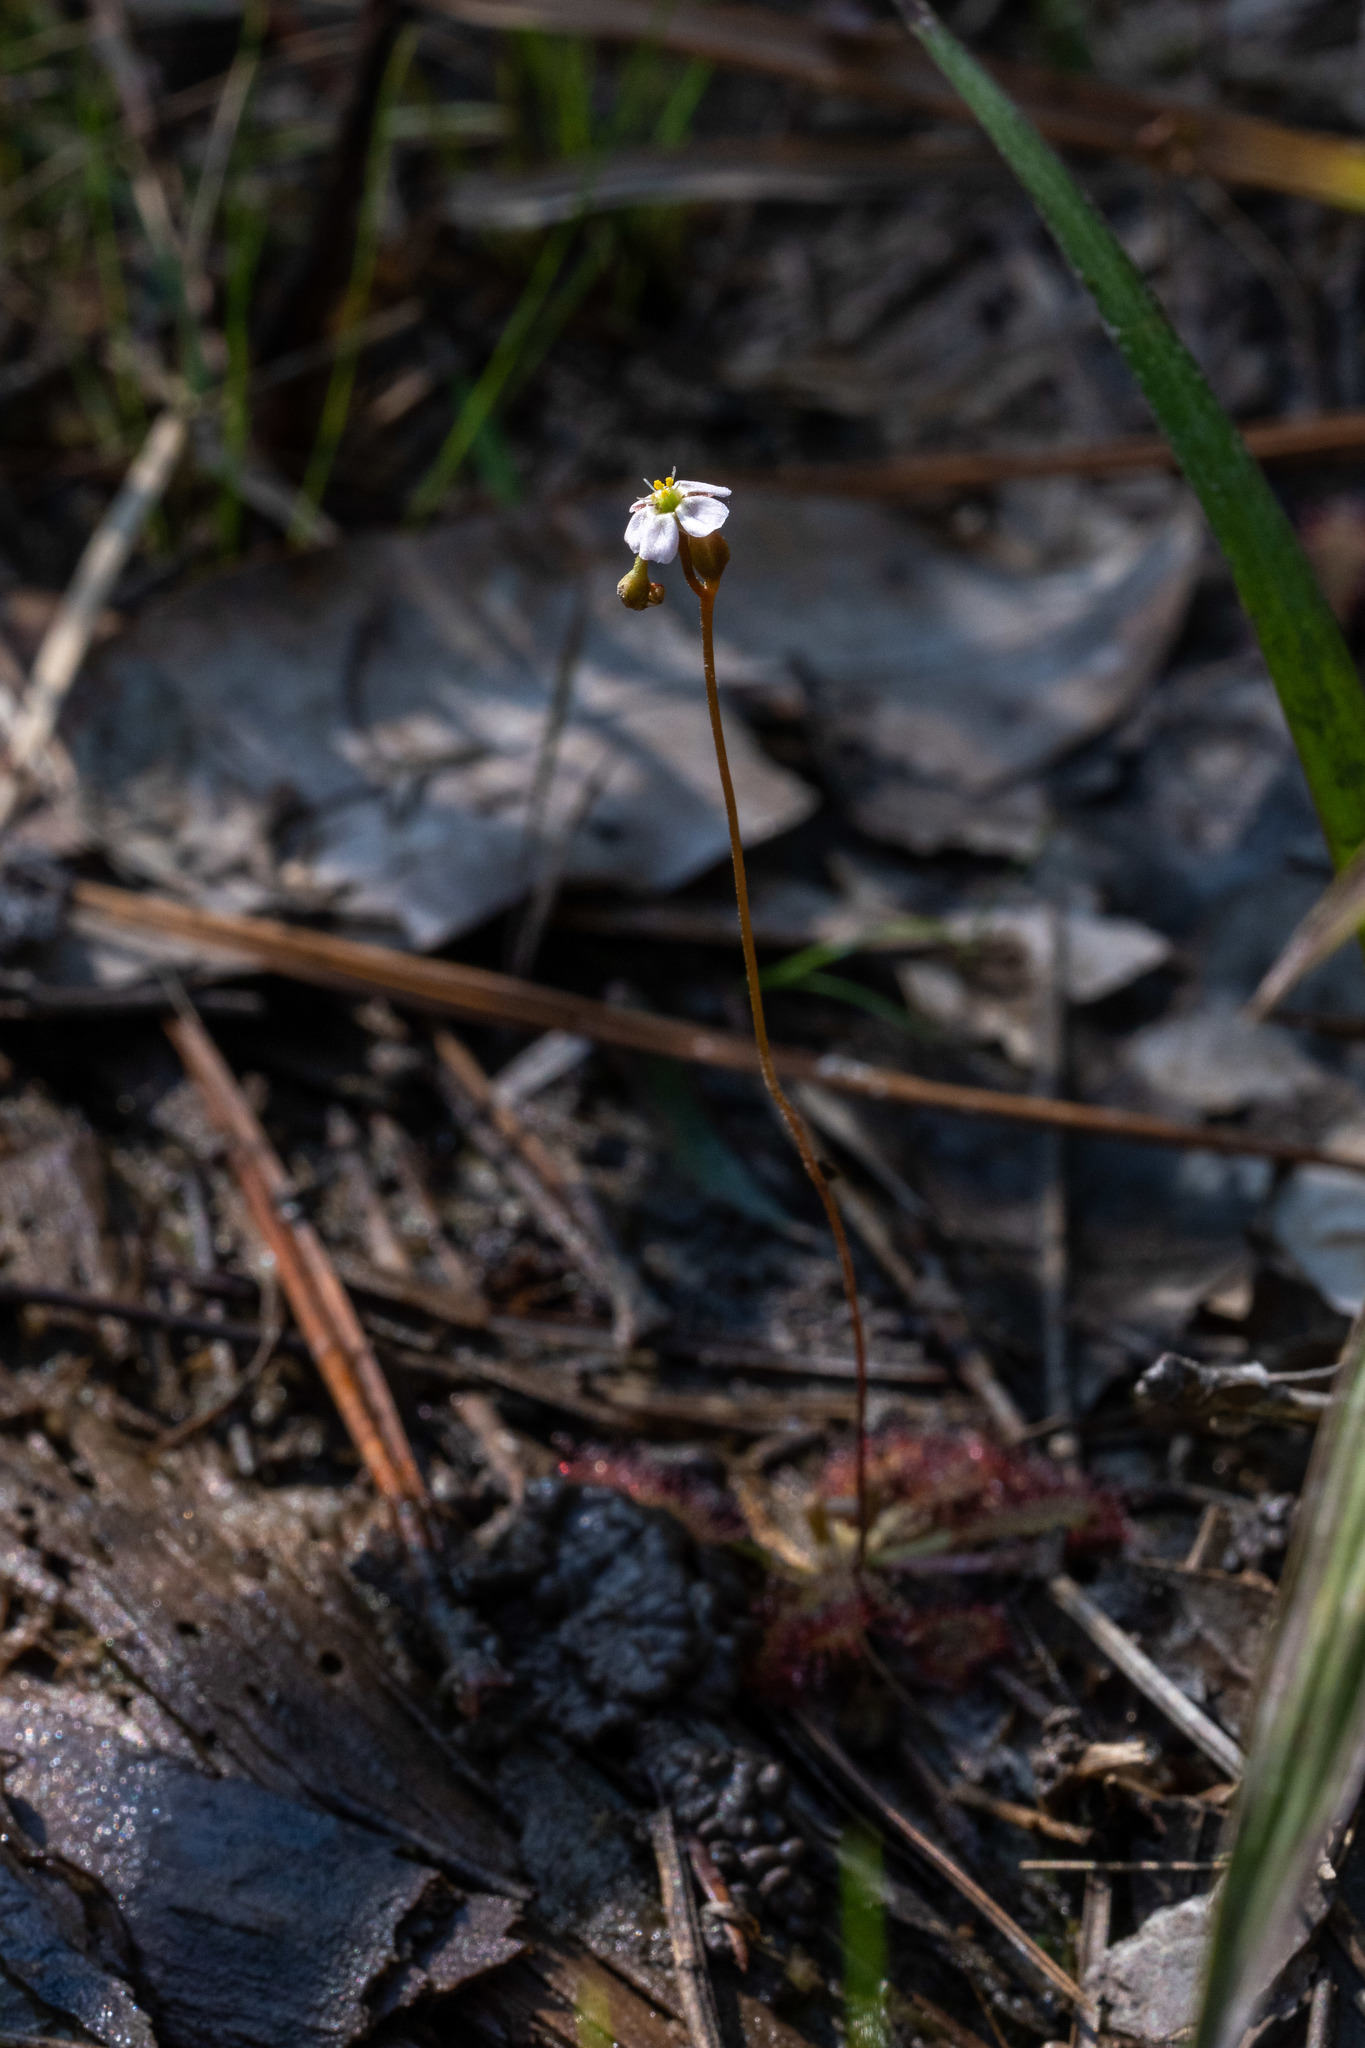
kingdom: Plantae
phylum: Tracheophyta
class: Magnoliopsida
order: Caryophyllales
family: Droseraceae
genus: Drosera
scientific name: Drosera capillaris
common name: Pink sundew
